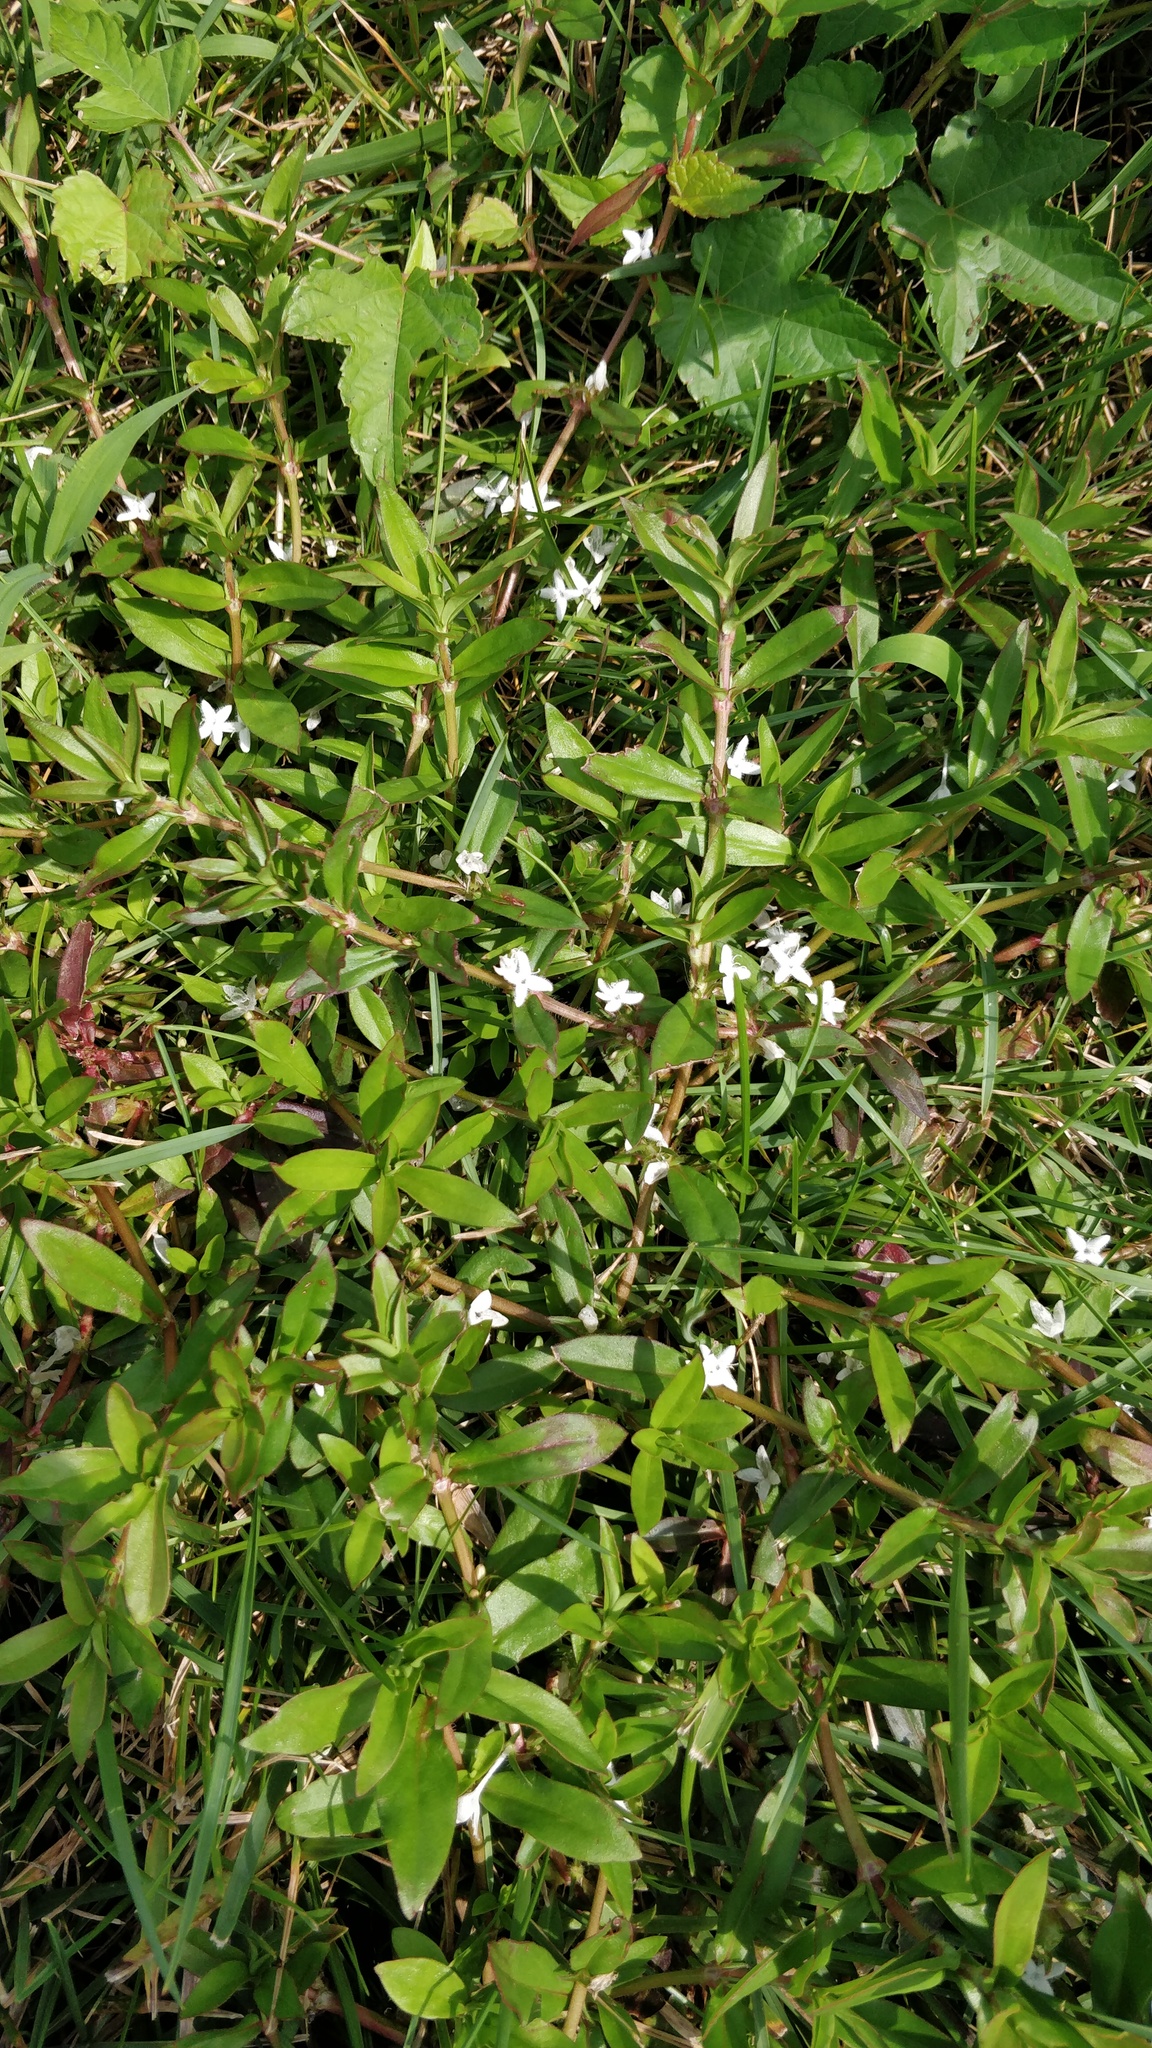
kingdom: Plantae
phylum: Tracheophyta
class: Magnoliopsida
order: Gentianales
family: Rubiaceae
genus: Diodia
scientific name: Diodia virginiana
